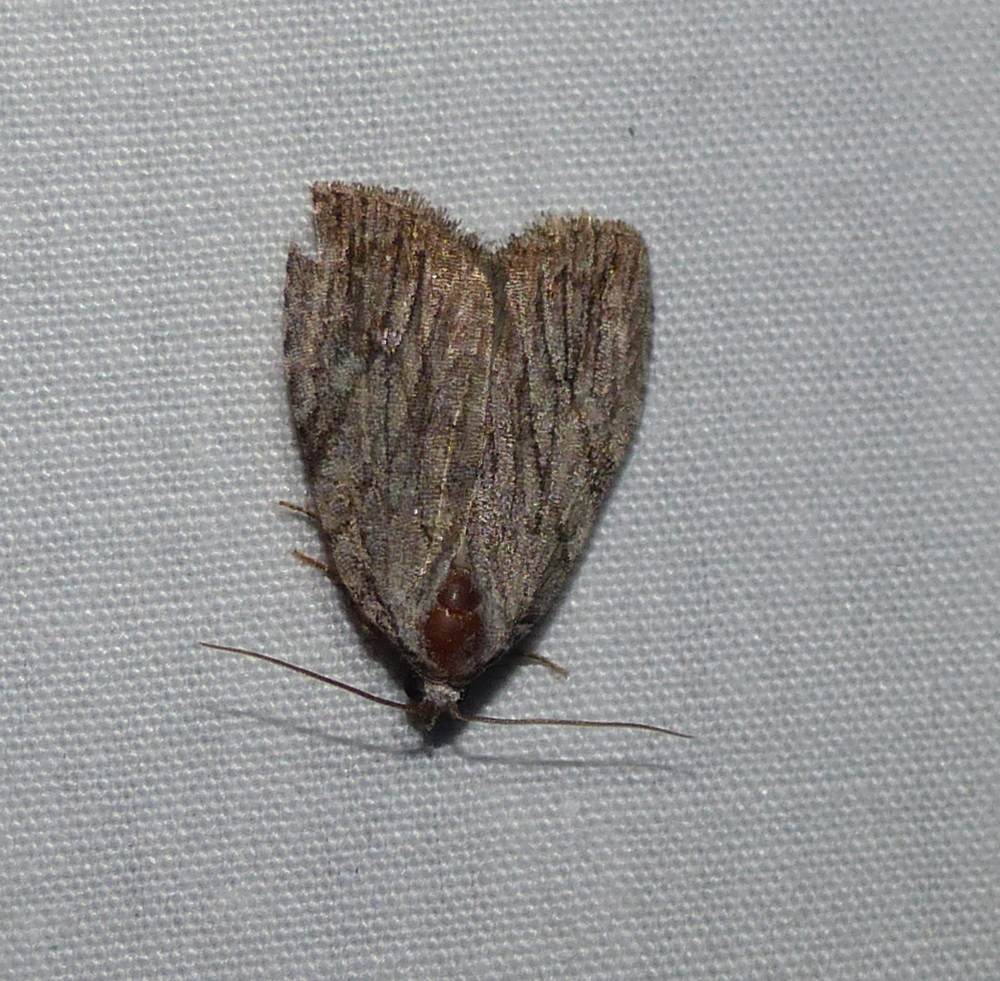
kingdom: Animalia
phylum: Arthropoda
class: Insecta
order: Lepidoptera
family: Noctuidae
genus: Balsa
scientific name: Balsa tristrigella
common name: Three-lined balsa moth
